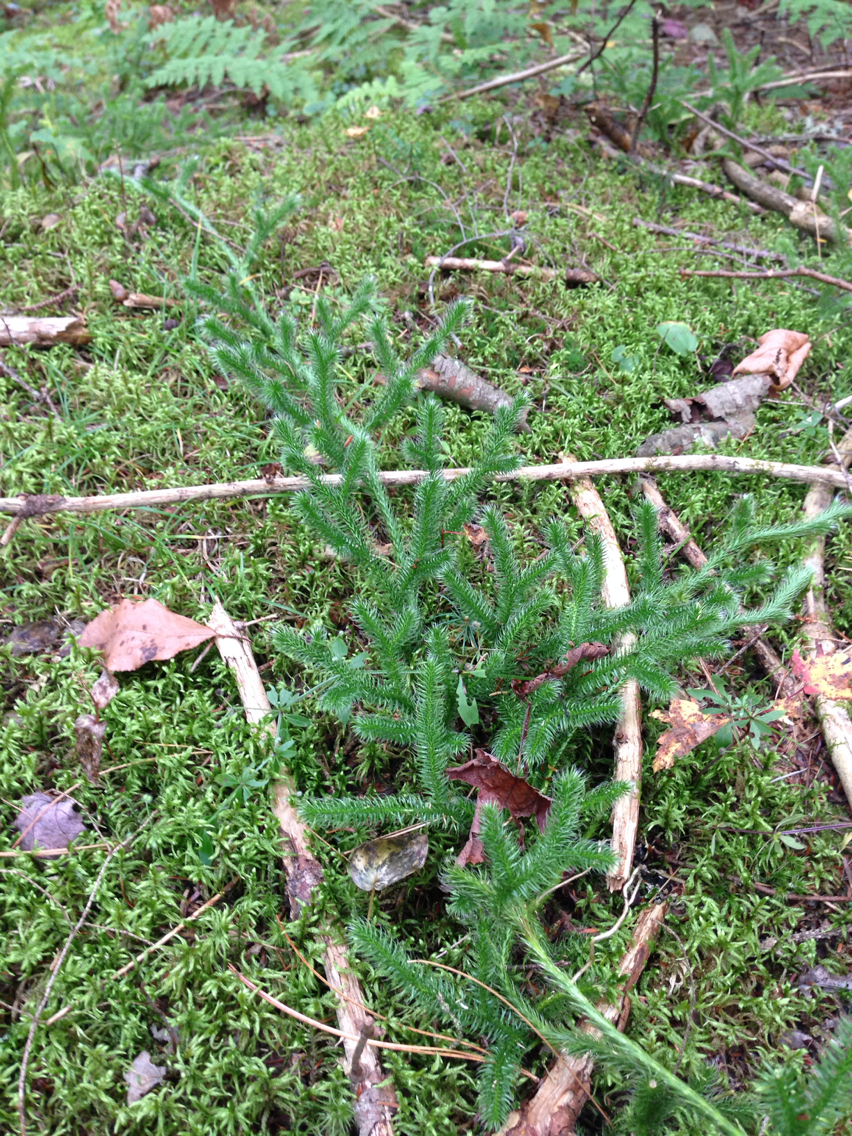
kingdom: Plantae
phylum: Tracheophyta
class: Lycopodiopsida
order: Lycopodiales
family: Lycopodiaceae
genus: Lycopodium
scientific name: Lycopodium clavatum
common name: Stag's-horn clubmoss
